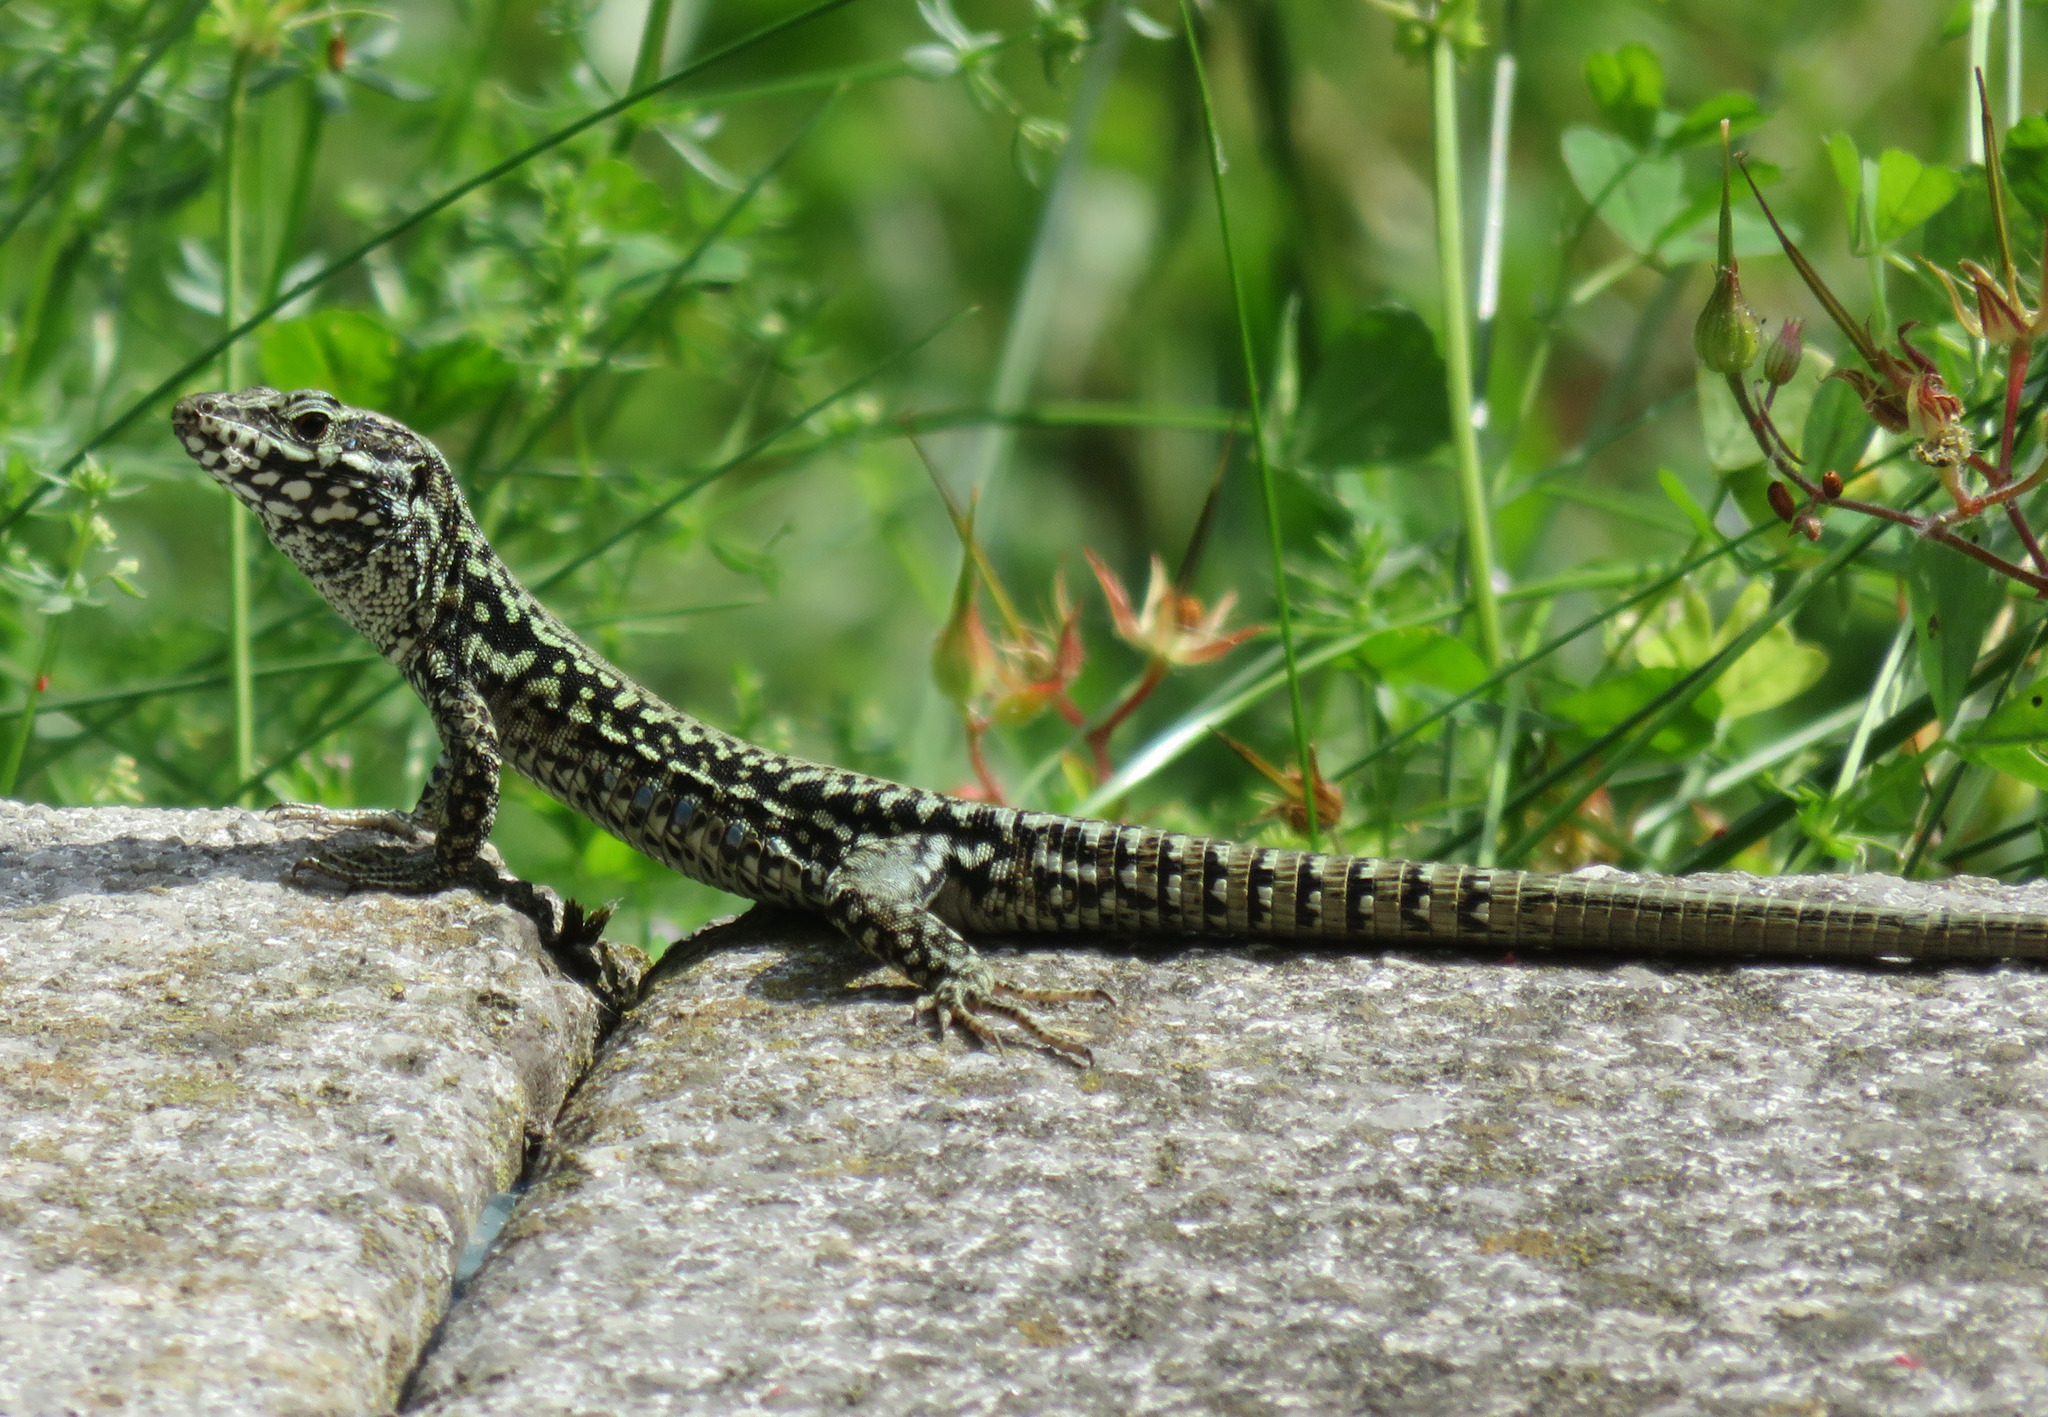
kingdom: Animalia
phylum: Chordata
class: Squamata
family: Lacertidae
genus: Podarcis
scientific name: Podarcis muralis
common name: Common wall lizard
